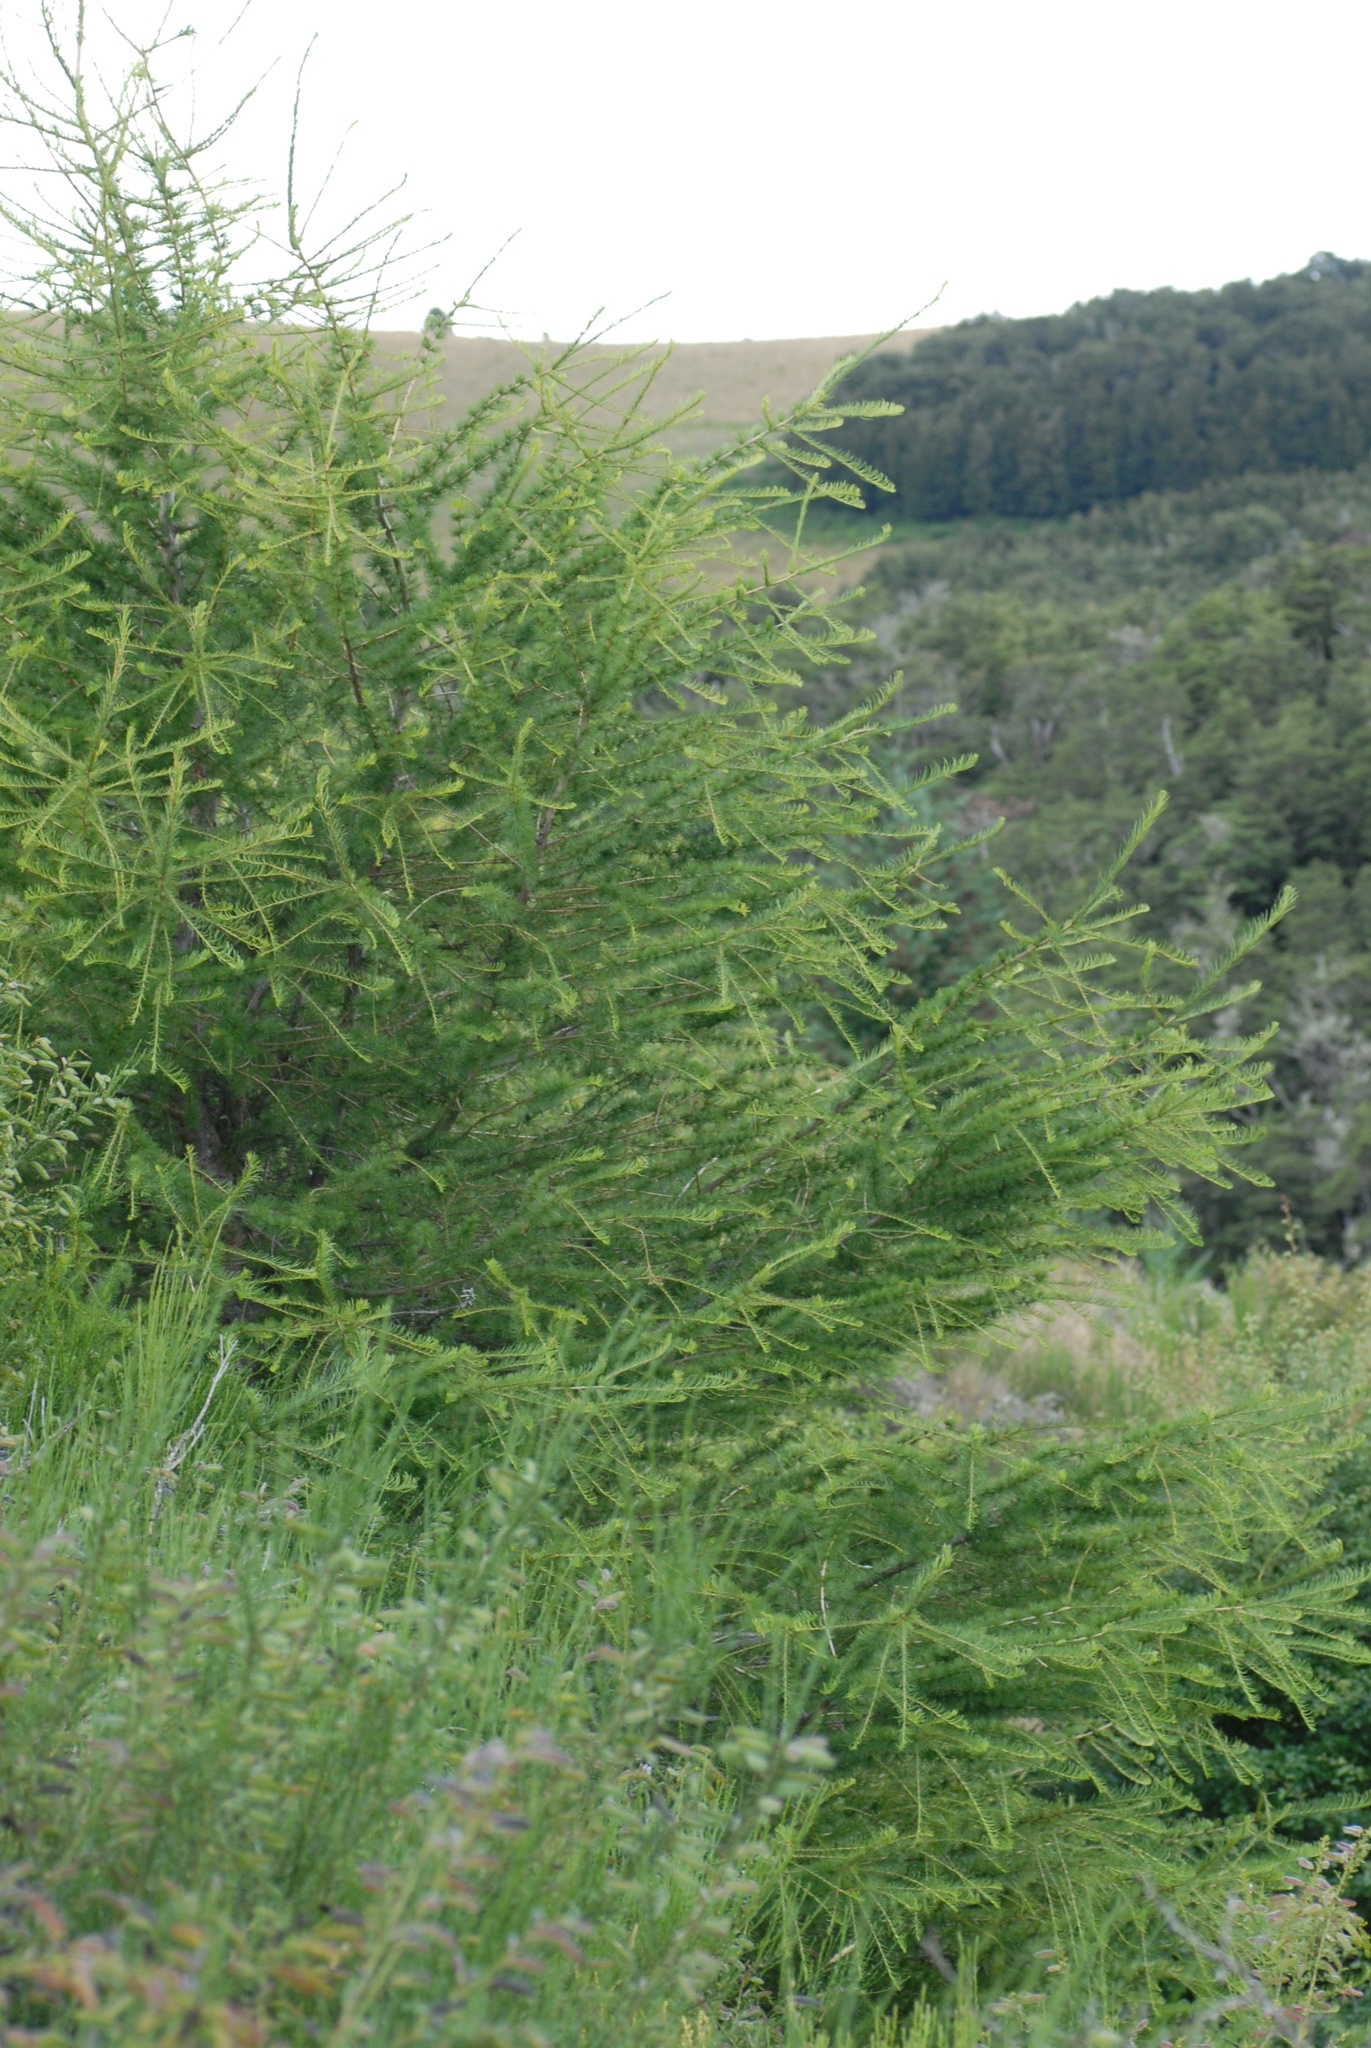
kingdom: Plantae
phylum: Tracheophyta
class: Pinopsida
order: Pinales
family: Pinaceae
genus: Larix
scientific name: Larix decidua
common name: European larch
